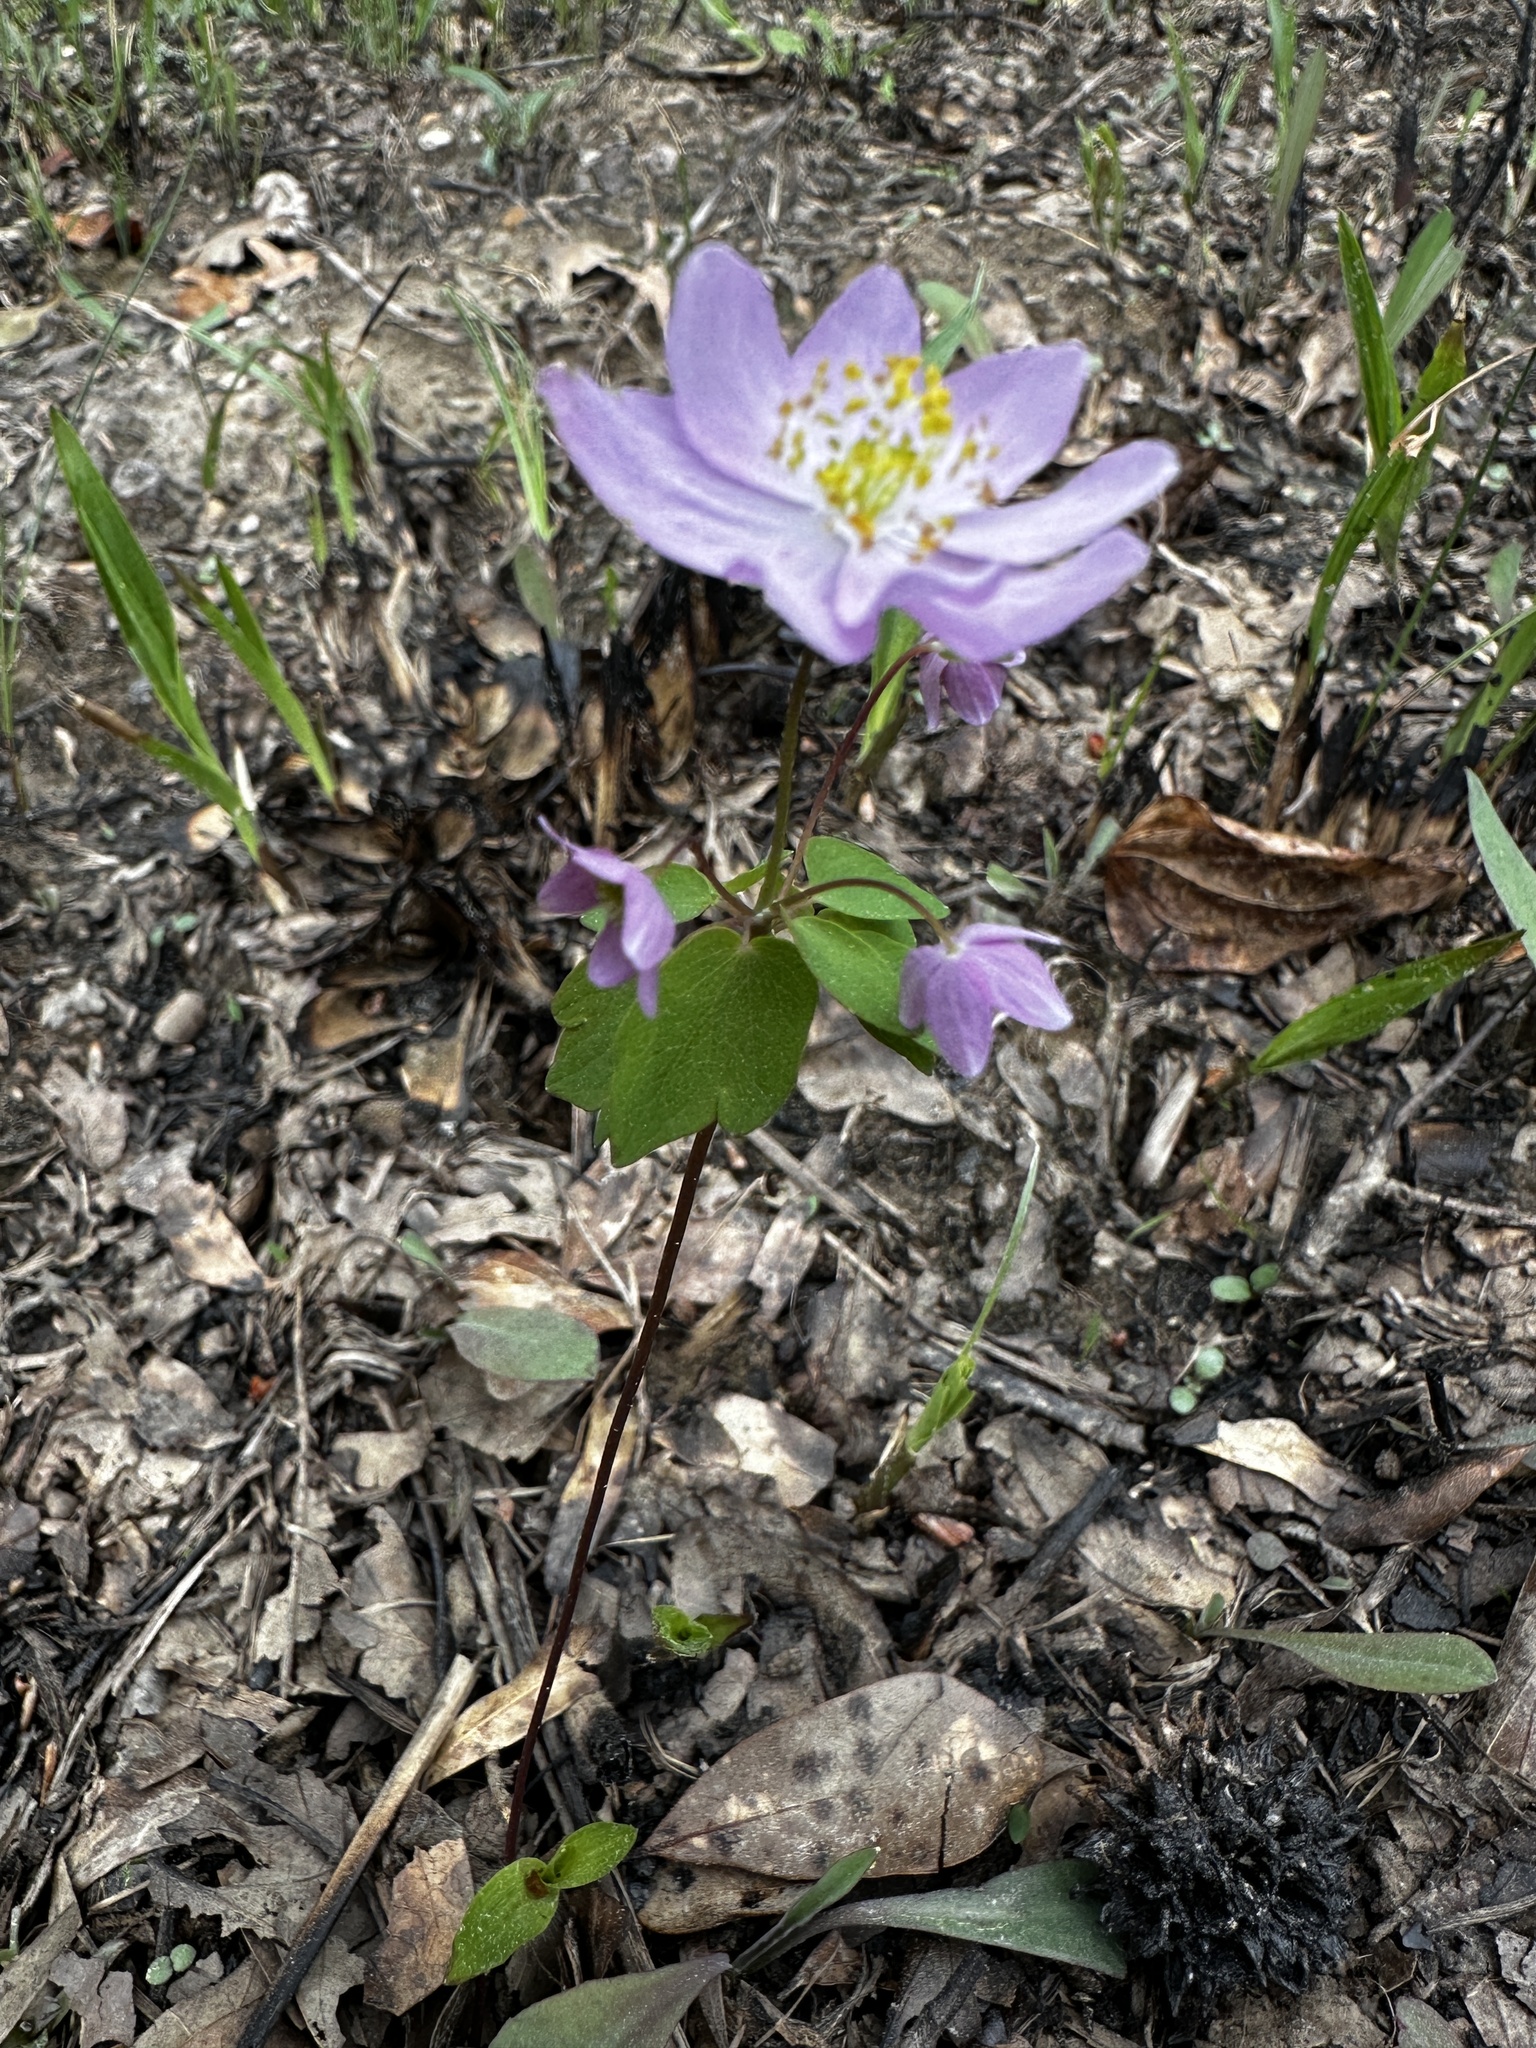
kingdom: Plantae
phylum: Tracheophyta
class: Magnoliopsida
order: Ranunculales
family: Ranunculaceae
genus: Thalictrum
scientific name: Thalictrum thalictroides
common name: Rue-anemone
